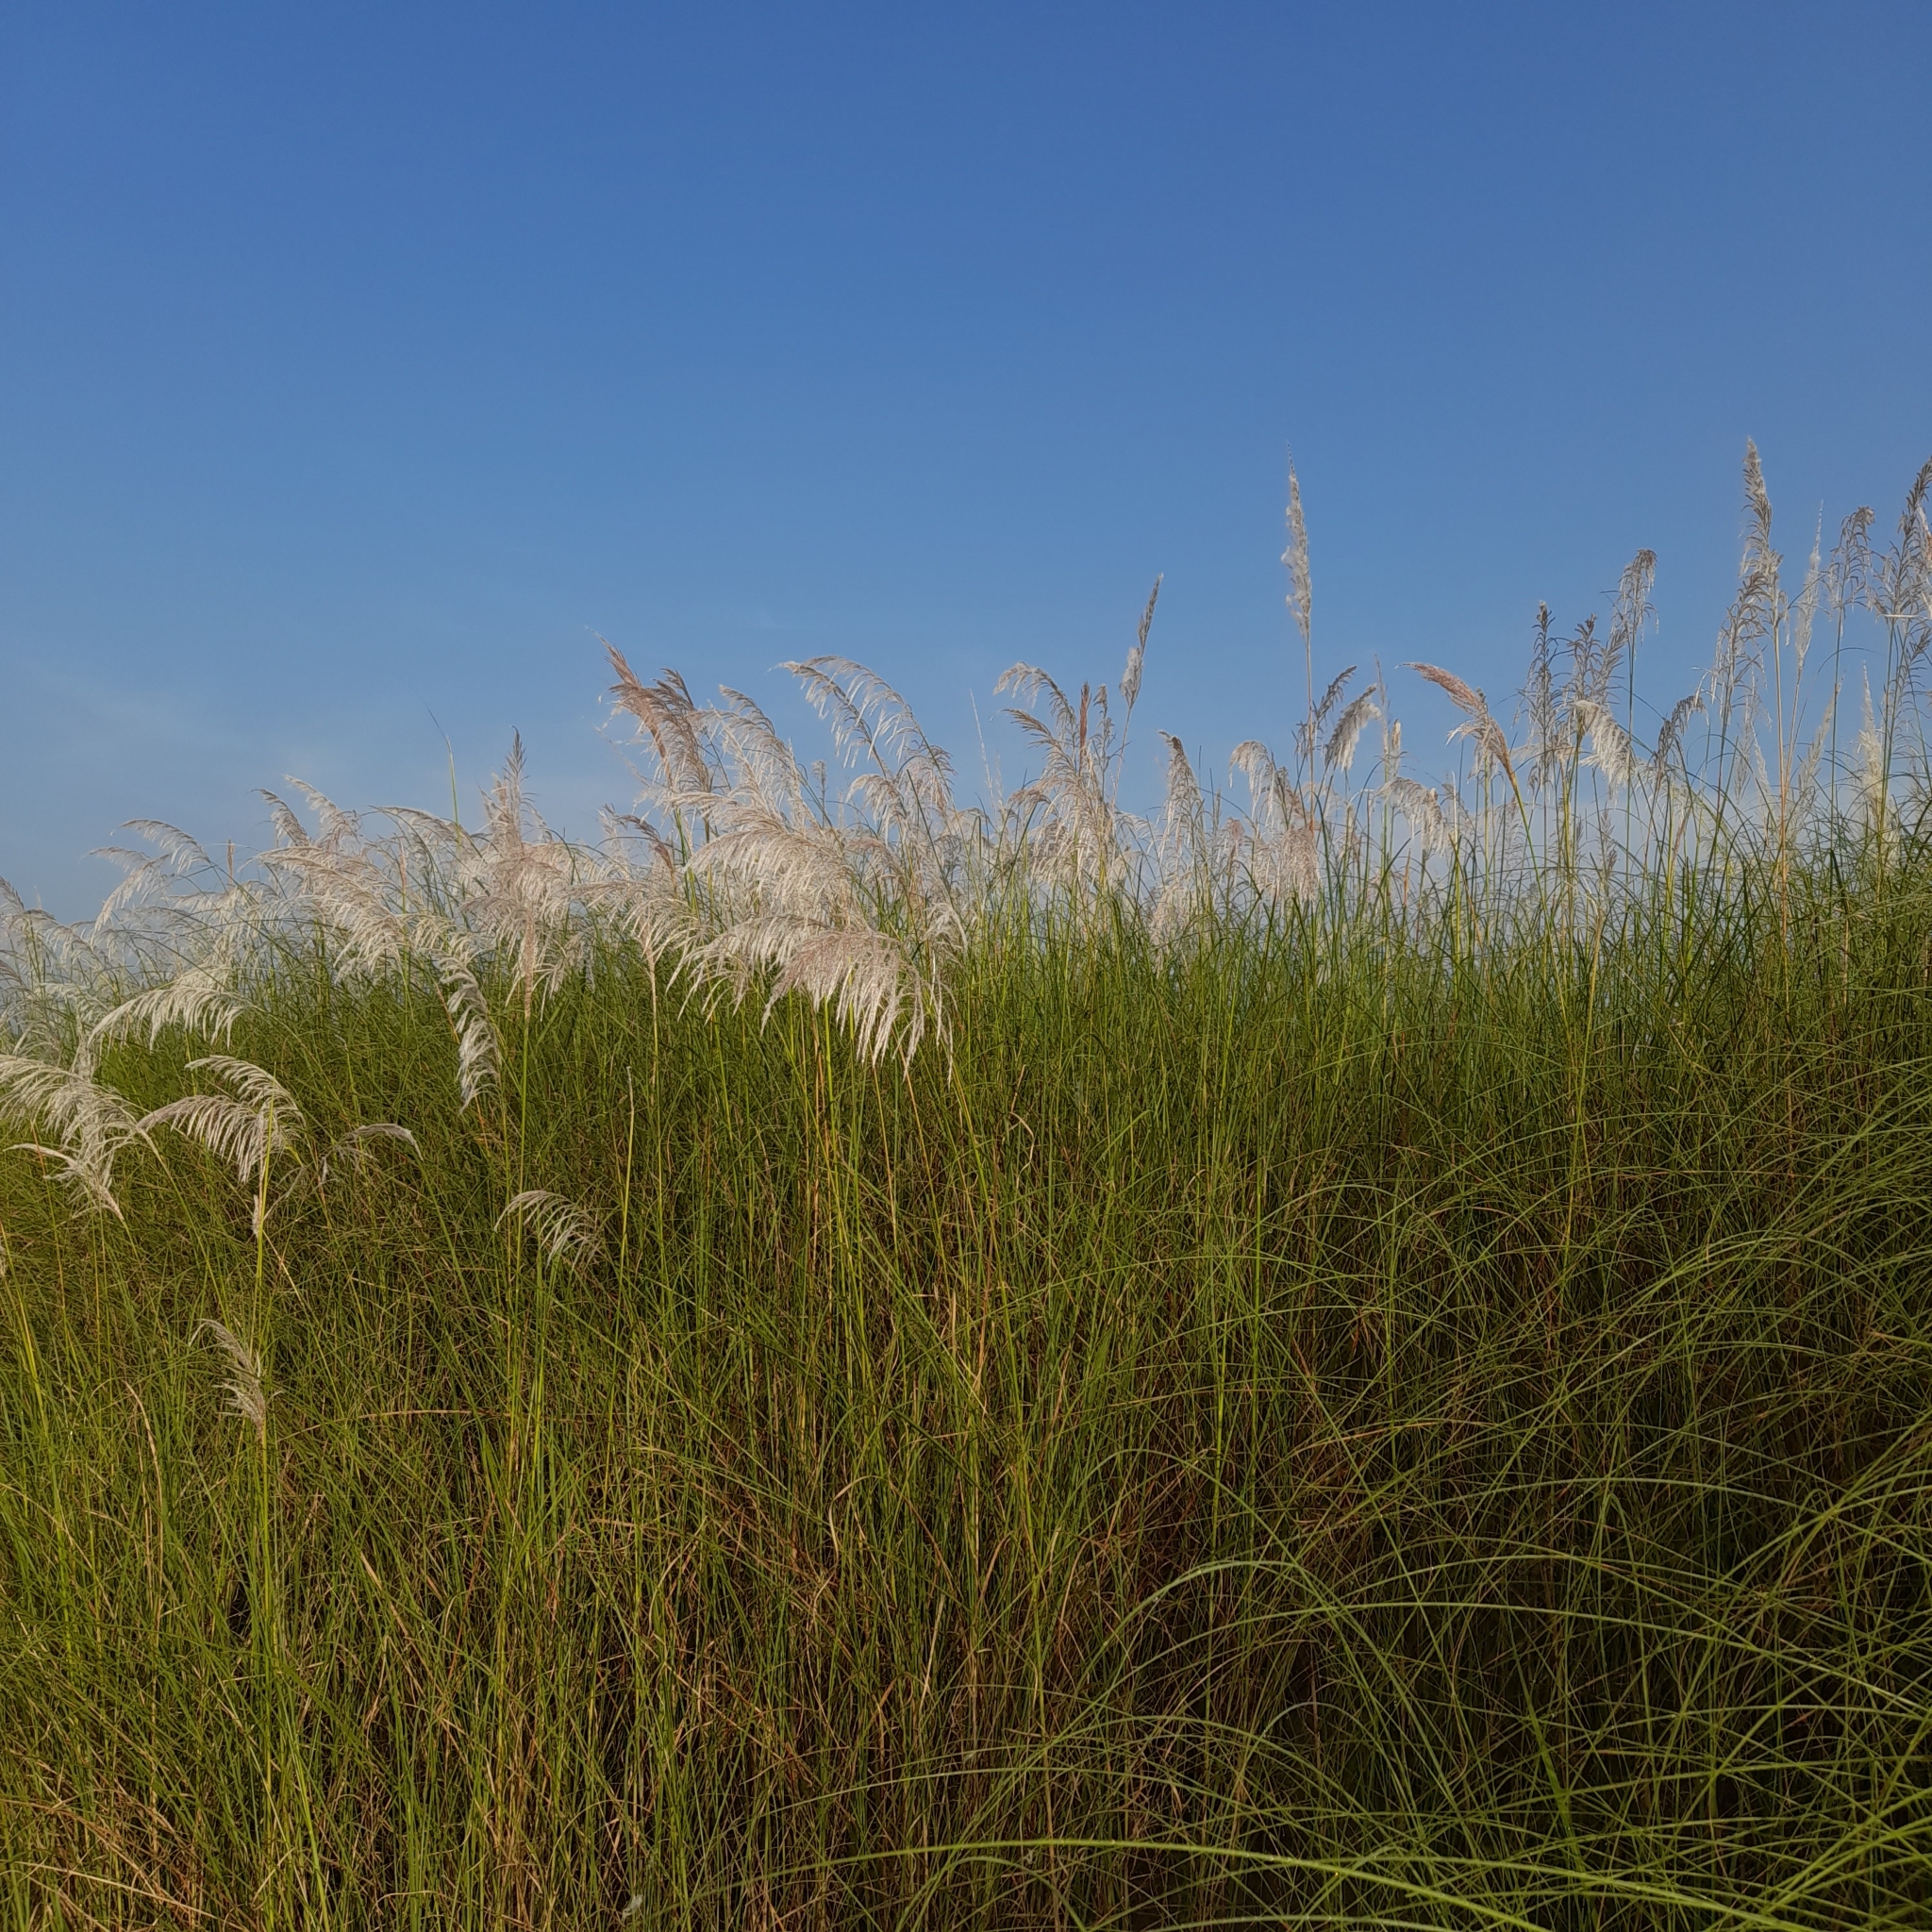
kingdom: Plantae
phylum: Tracheophyta
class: Liliopsida
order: Poales
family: Poaceae
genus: Saccharum
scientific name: Saccharum spontaneum
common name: Wild sugarcane
